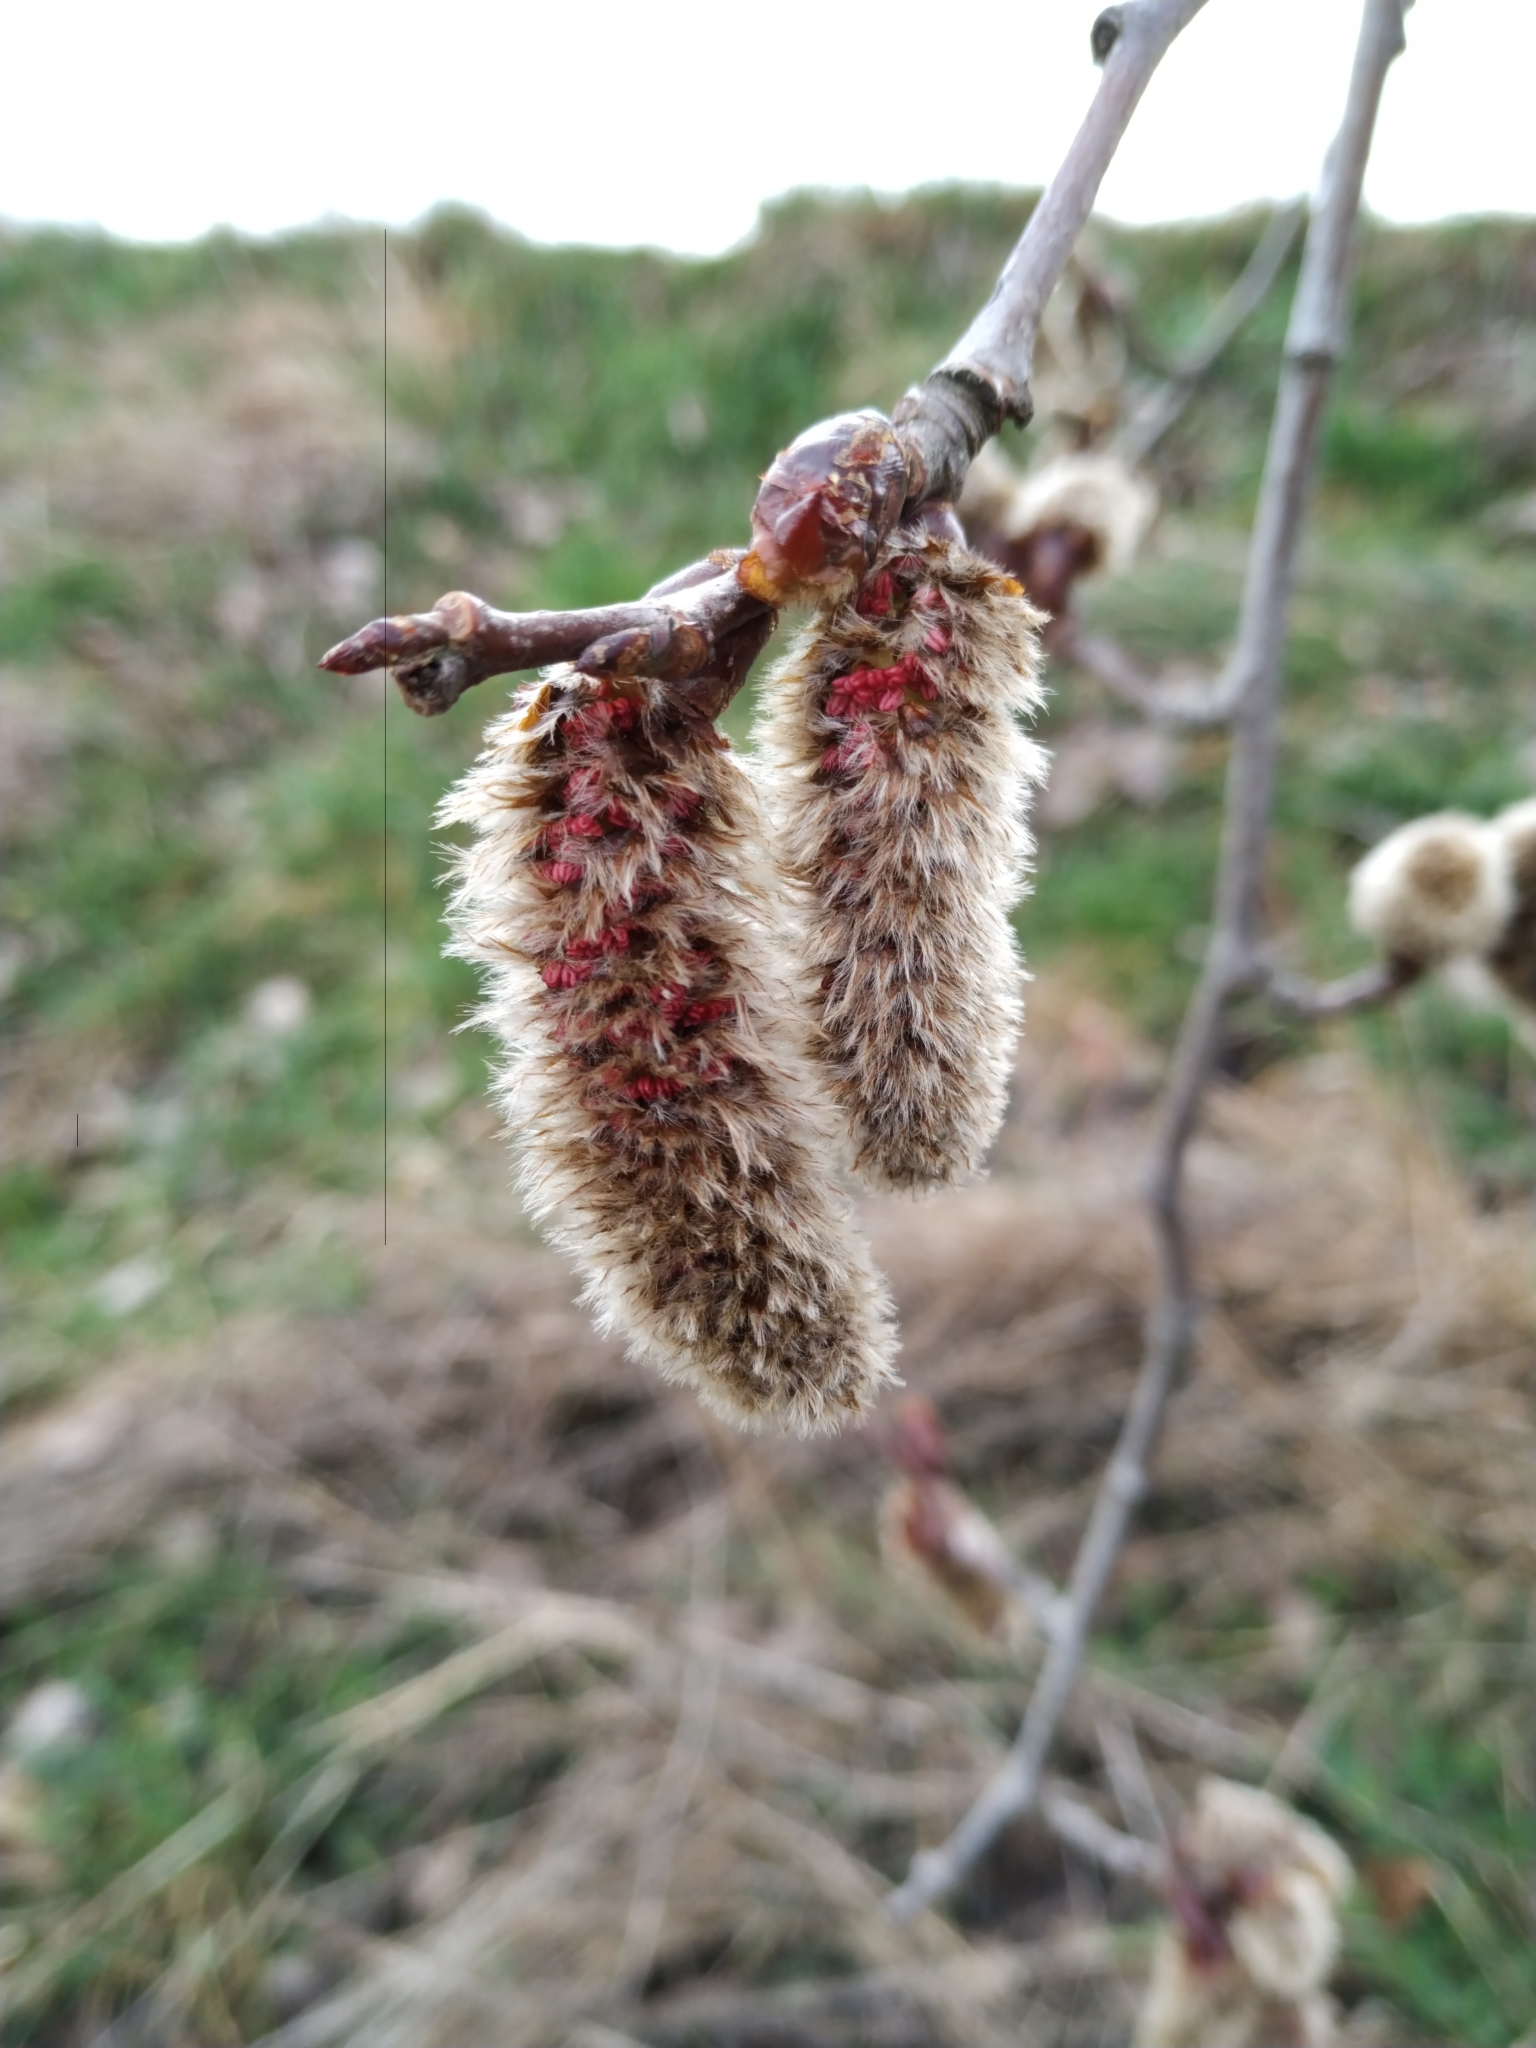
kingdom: Plantae
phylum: Tracheophyta
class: Magnoliopsida
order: Malpighiales
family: Salicaceae
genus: Populus
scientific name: Populus tremula
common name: European aspen
